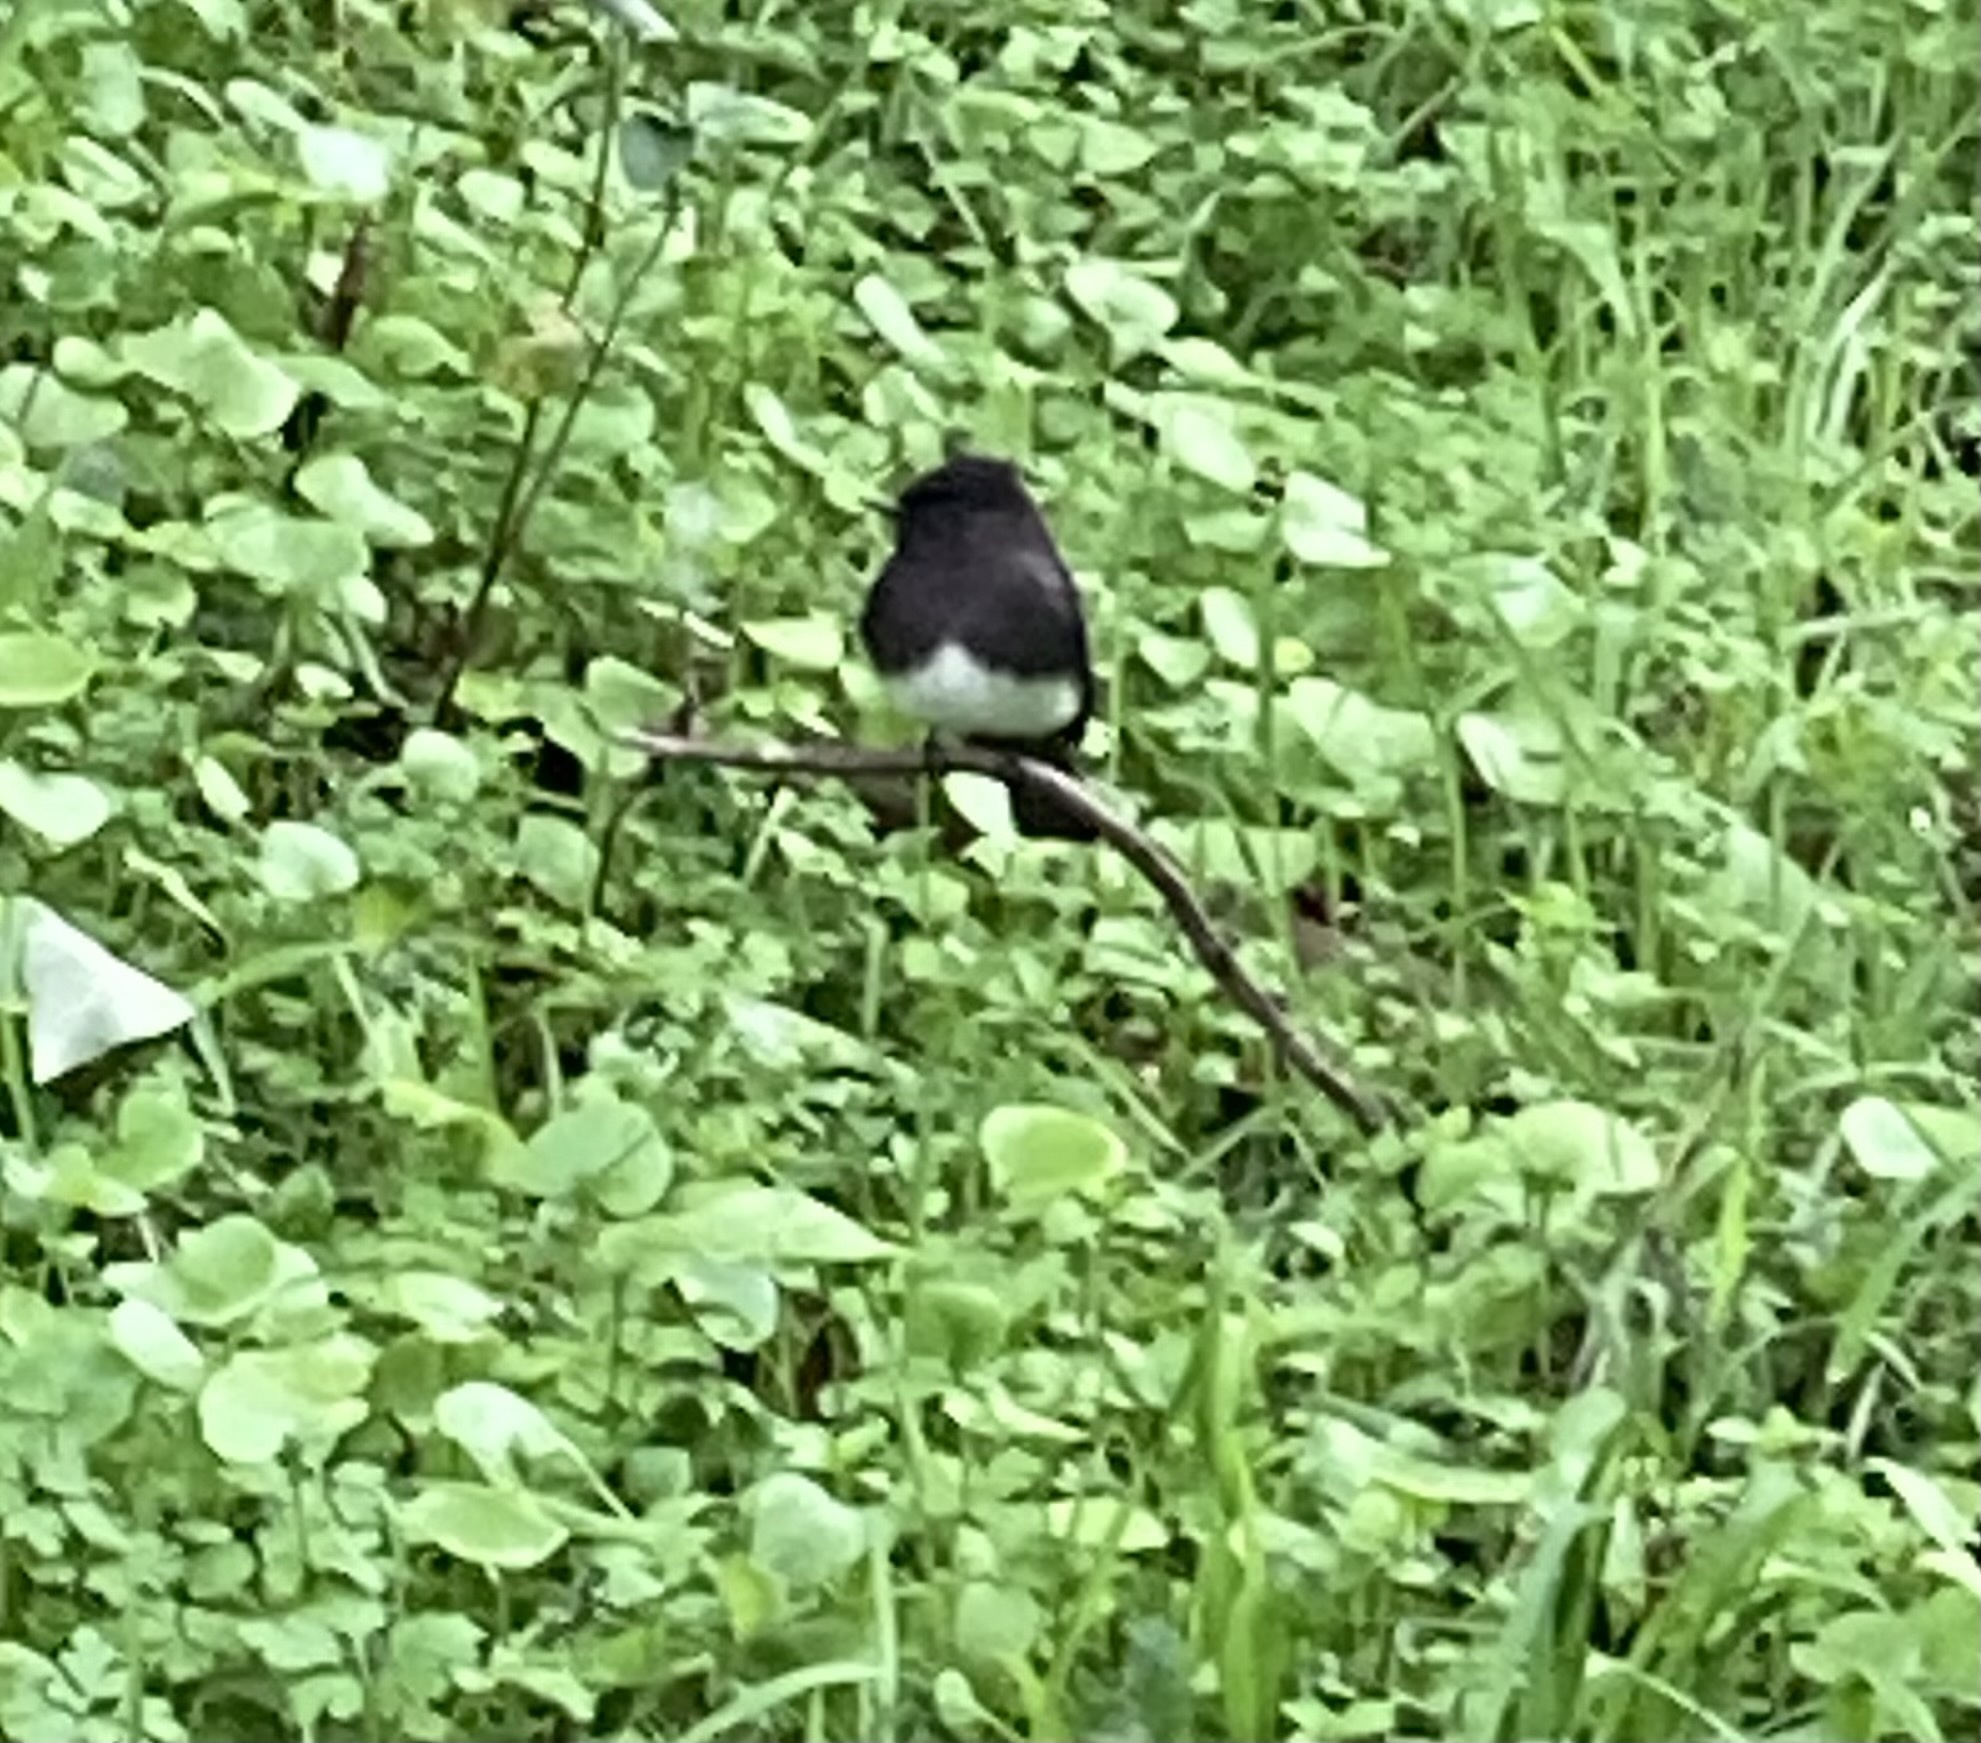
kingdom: Animalia
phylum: Chordata
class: Aves
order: Passeriformes
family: Tyrannidae
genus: Sayornis
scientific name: Sayornis nigricans
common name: Black phoebe
